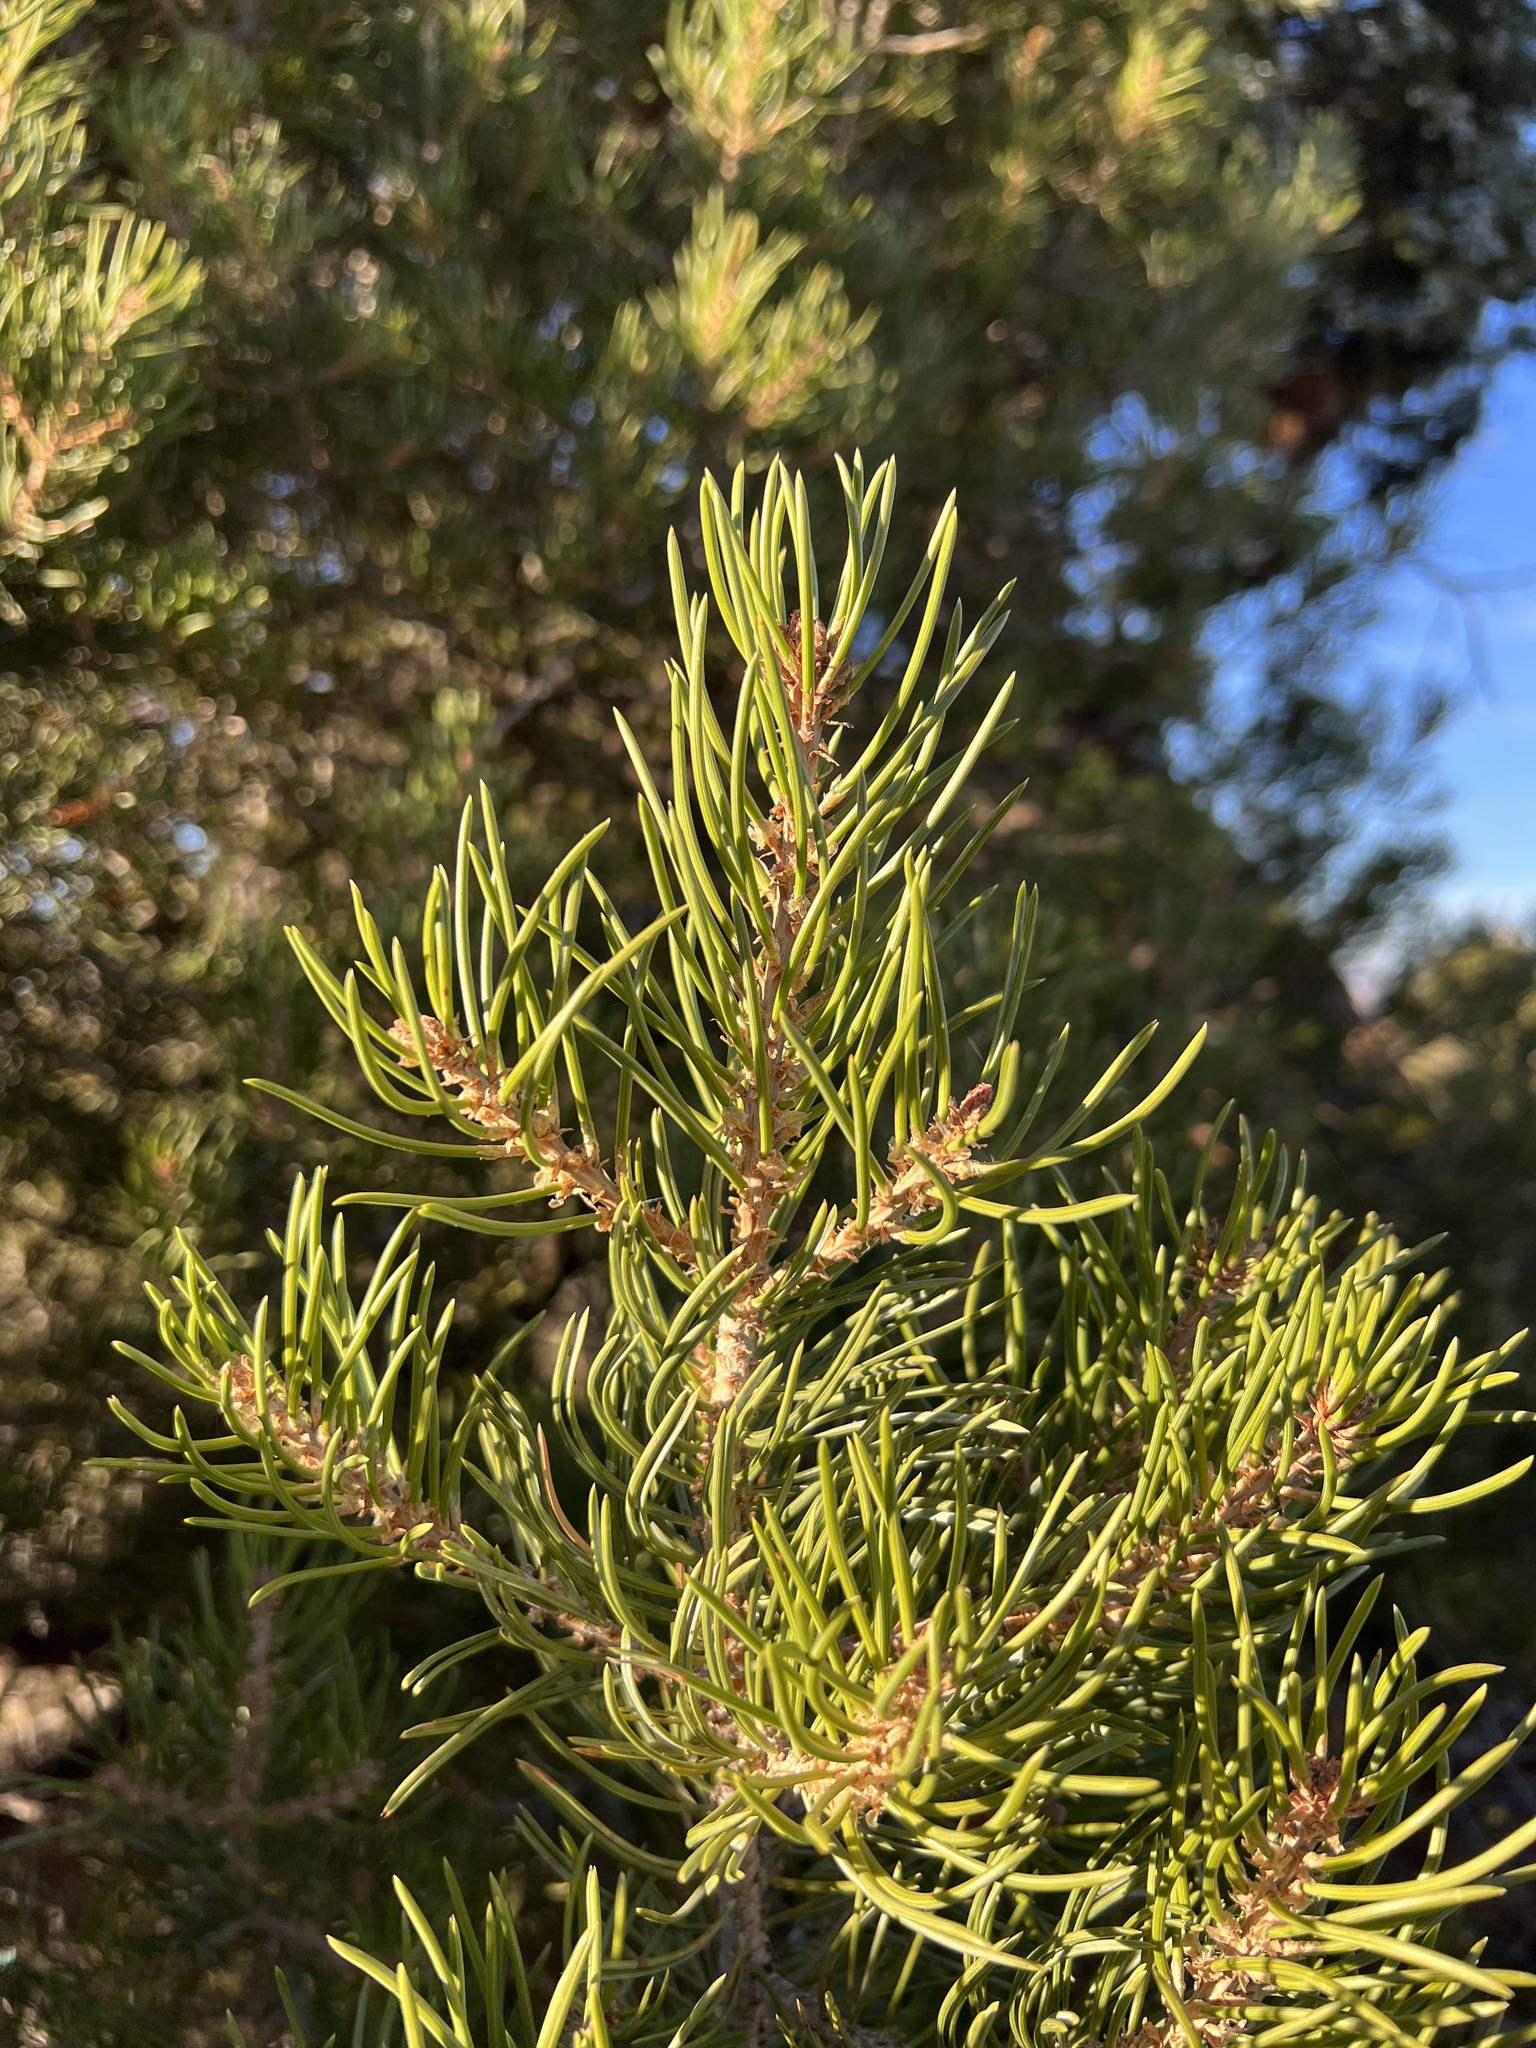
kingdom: Plantae
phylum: Tracheophyta
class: Pinopsida
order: Pinales
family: Pinaceae
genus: Pinus
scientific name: Pinus edulis
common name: Colorado pinyon
